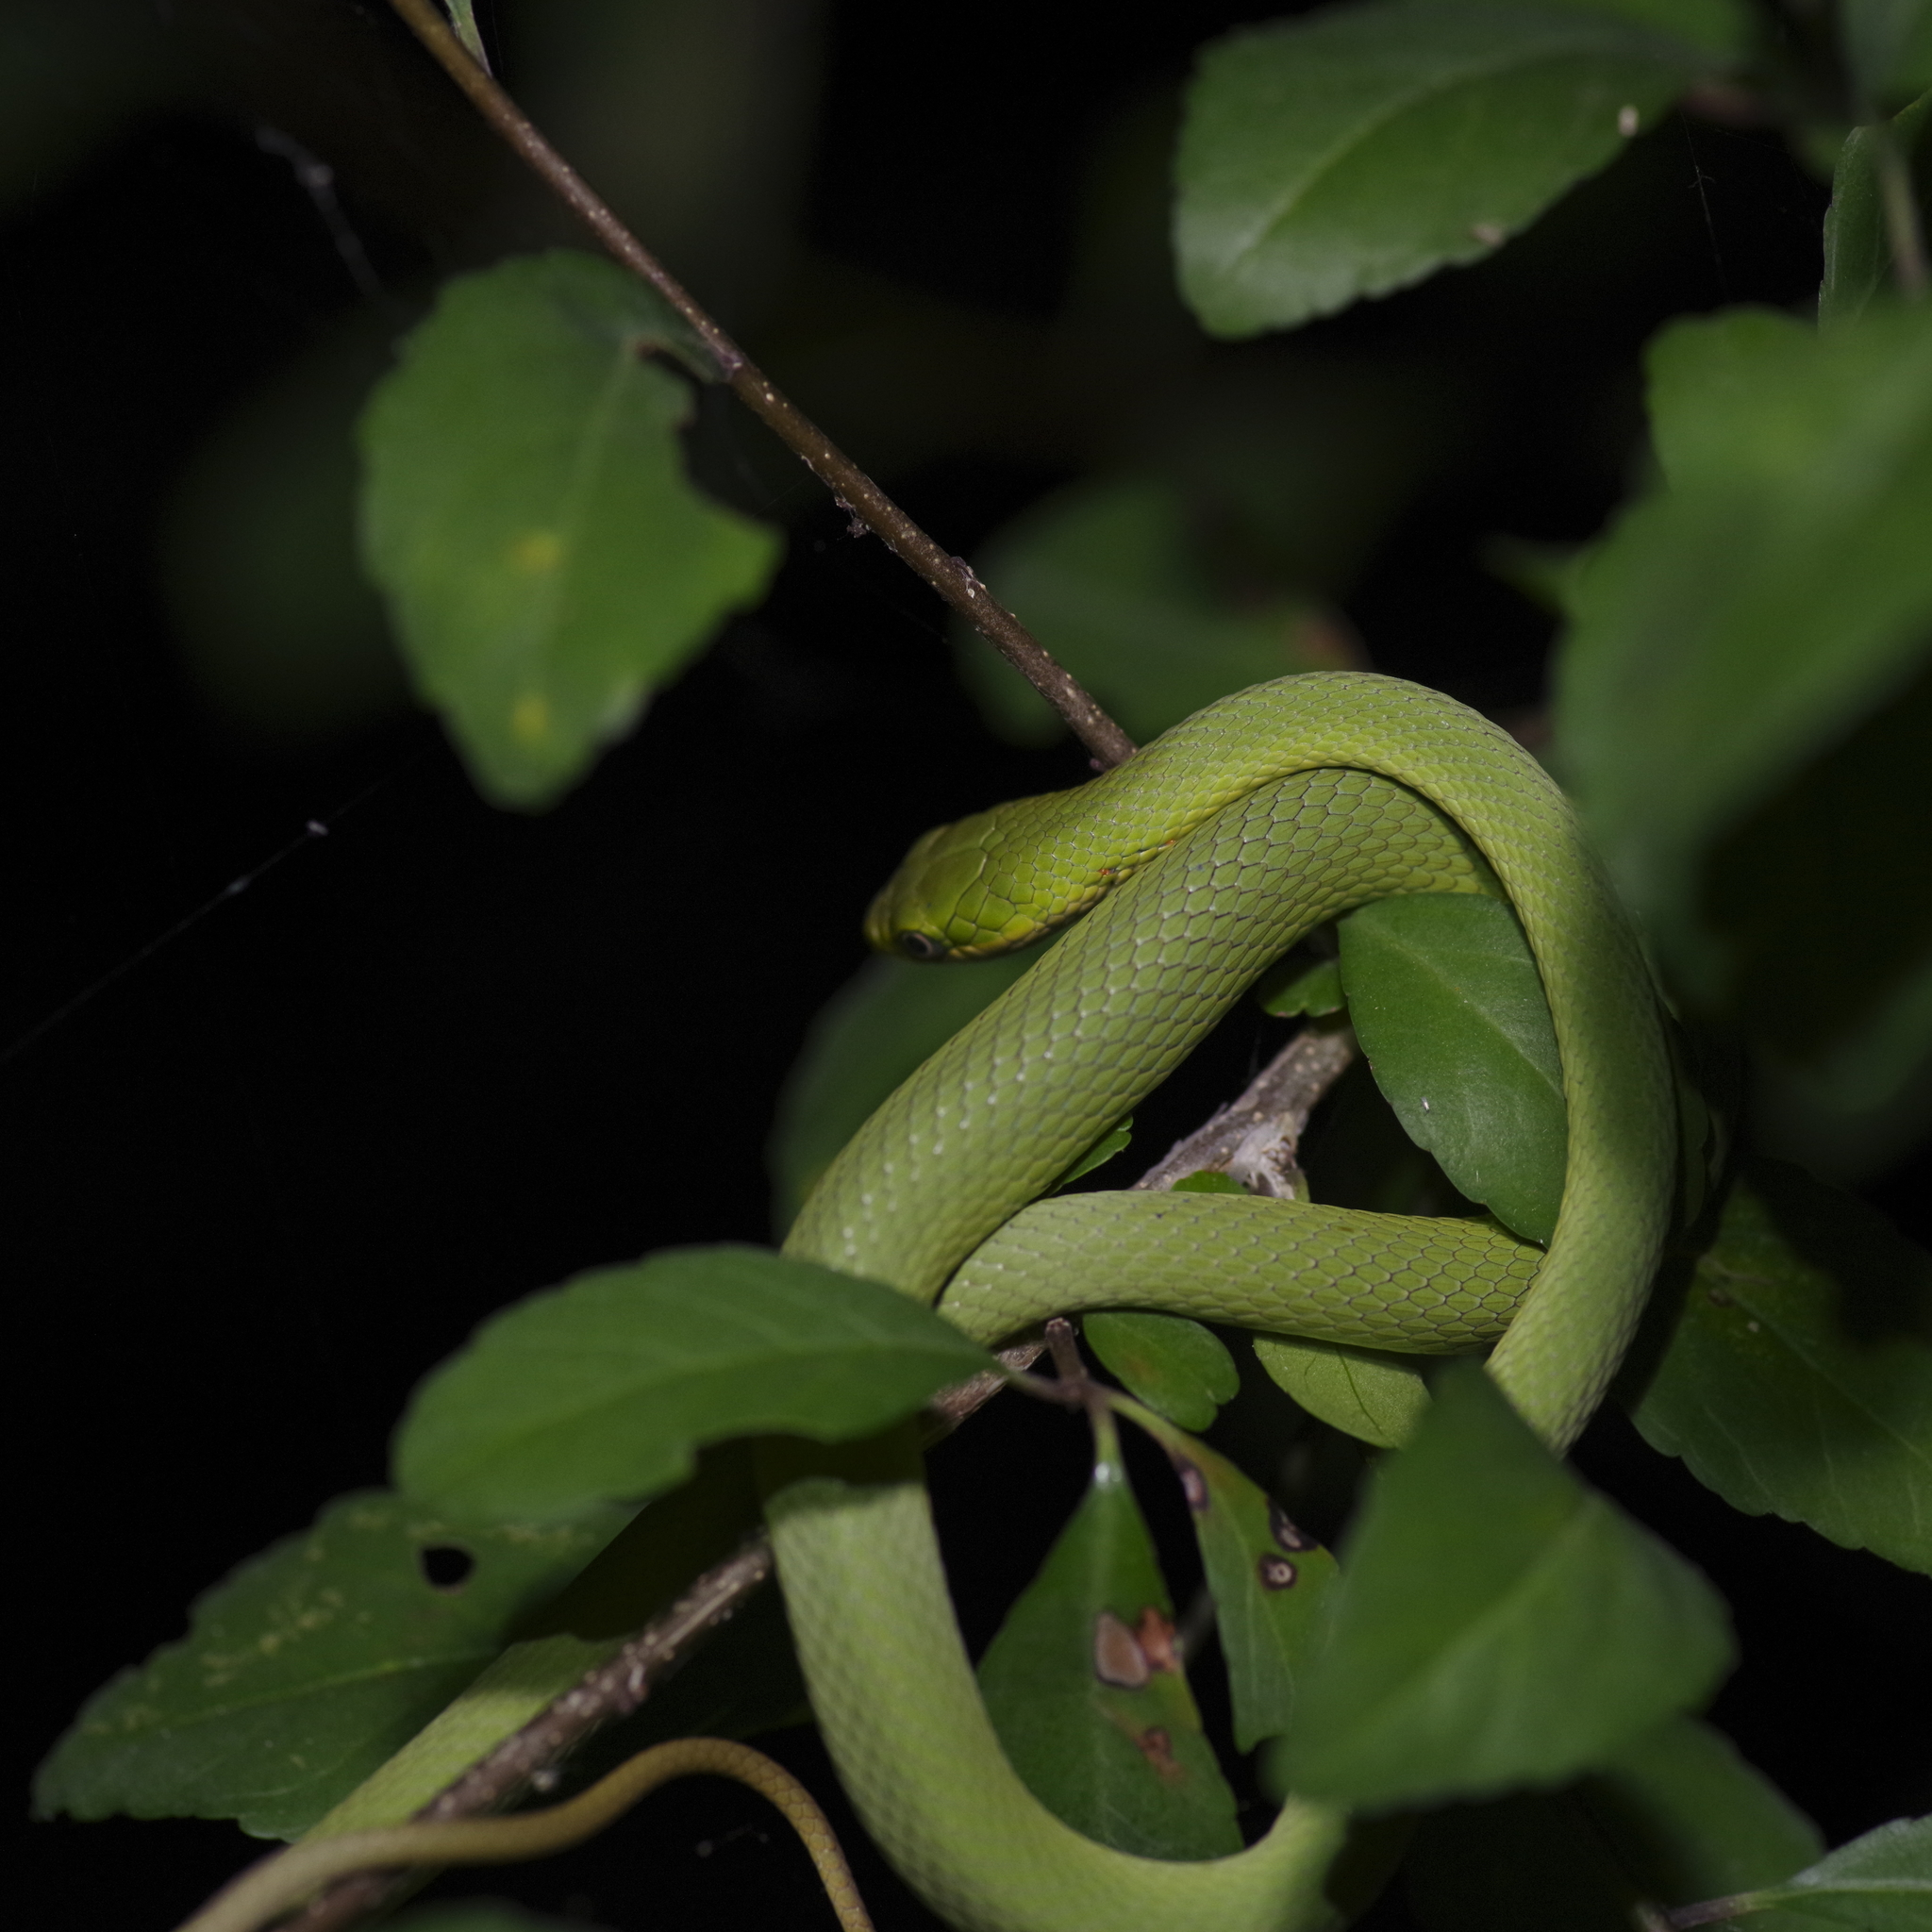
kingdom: Animalia
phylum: Chordata
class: Squamata
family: Colubridae
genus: Opheodrys
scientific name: Opheodrys aestivus
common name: Rough greensnake
